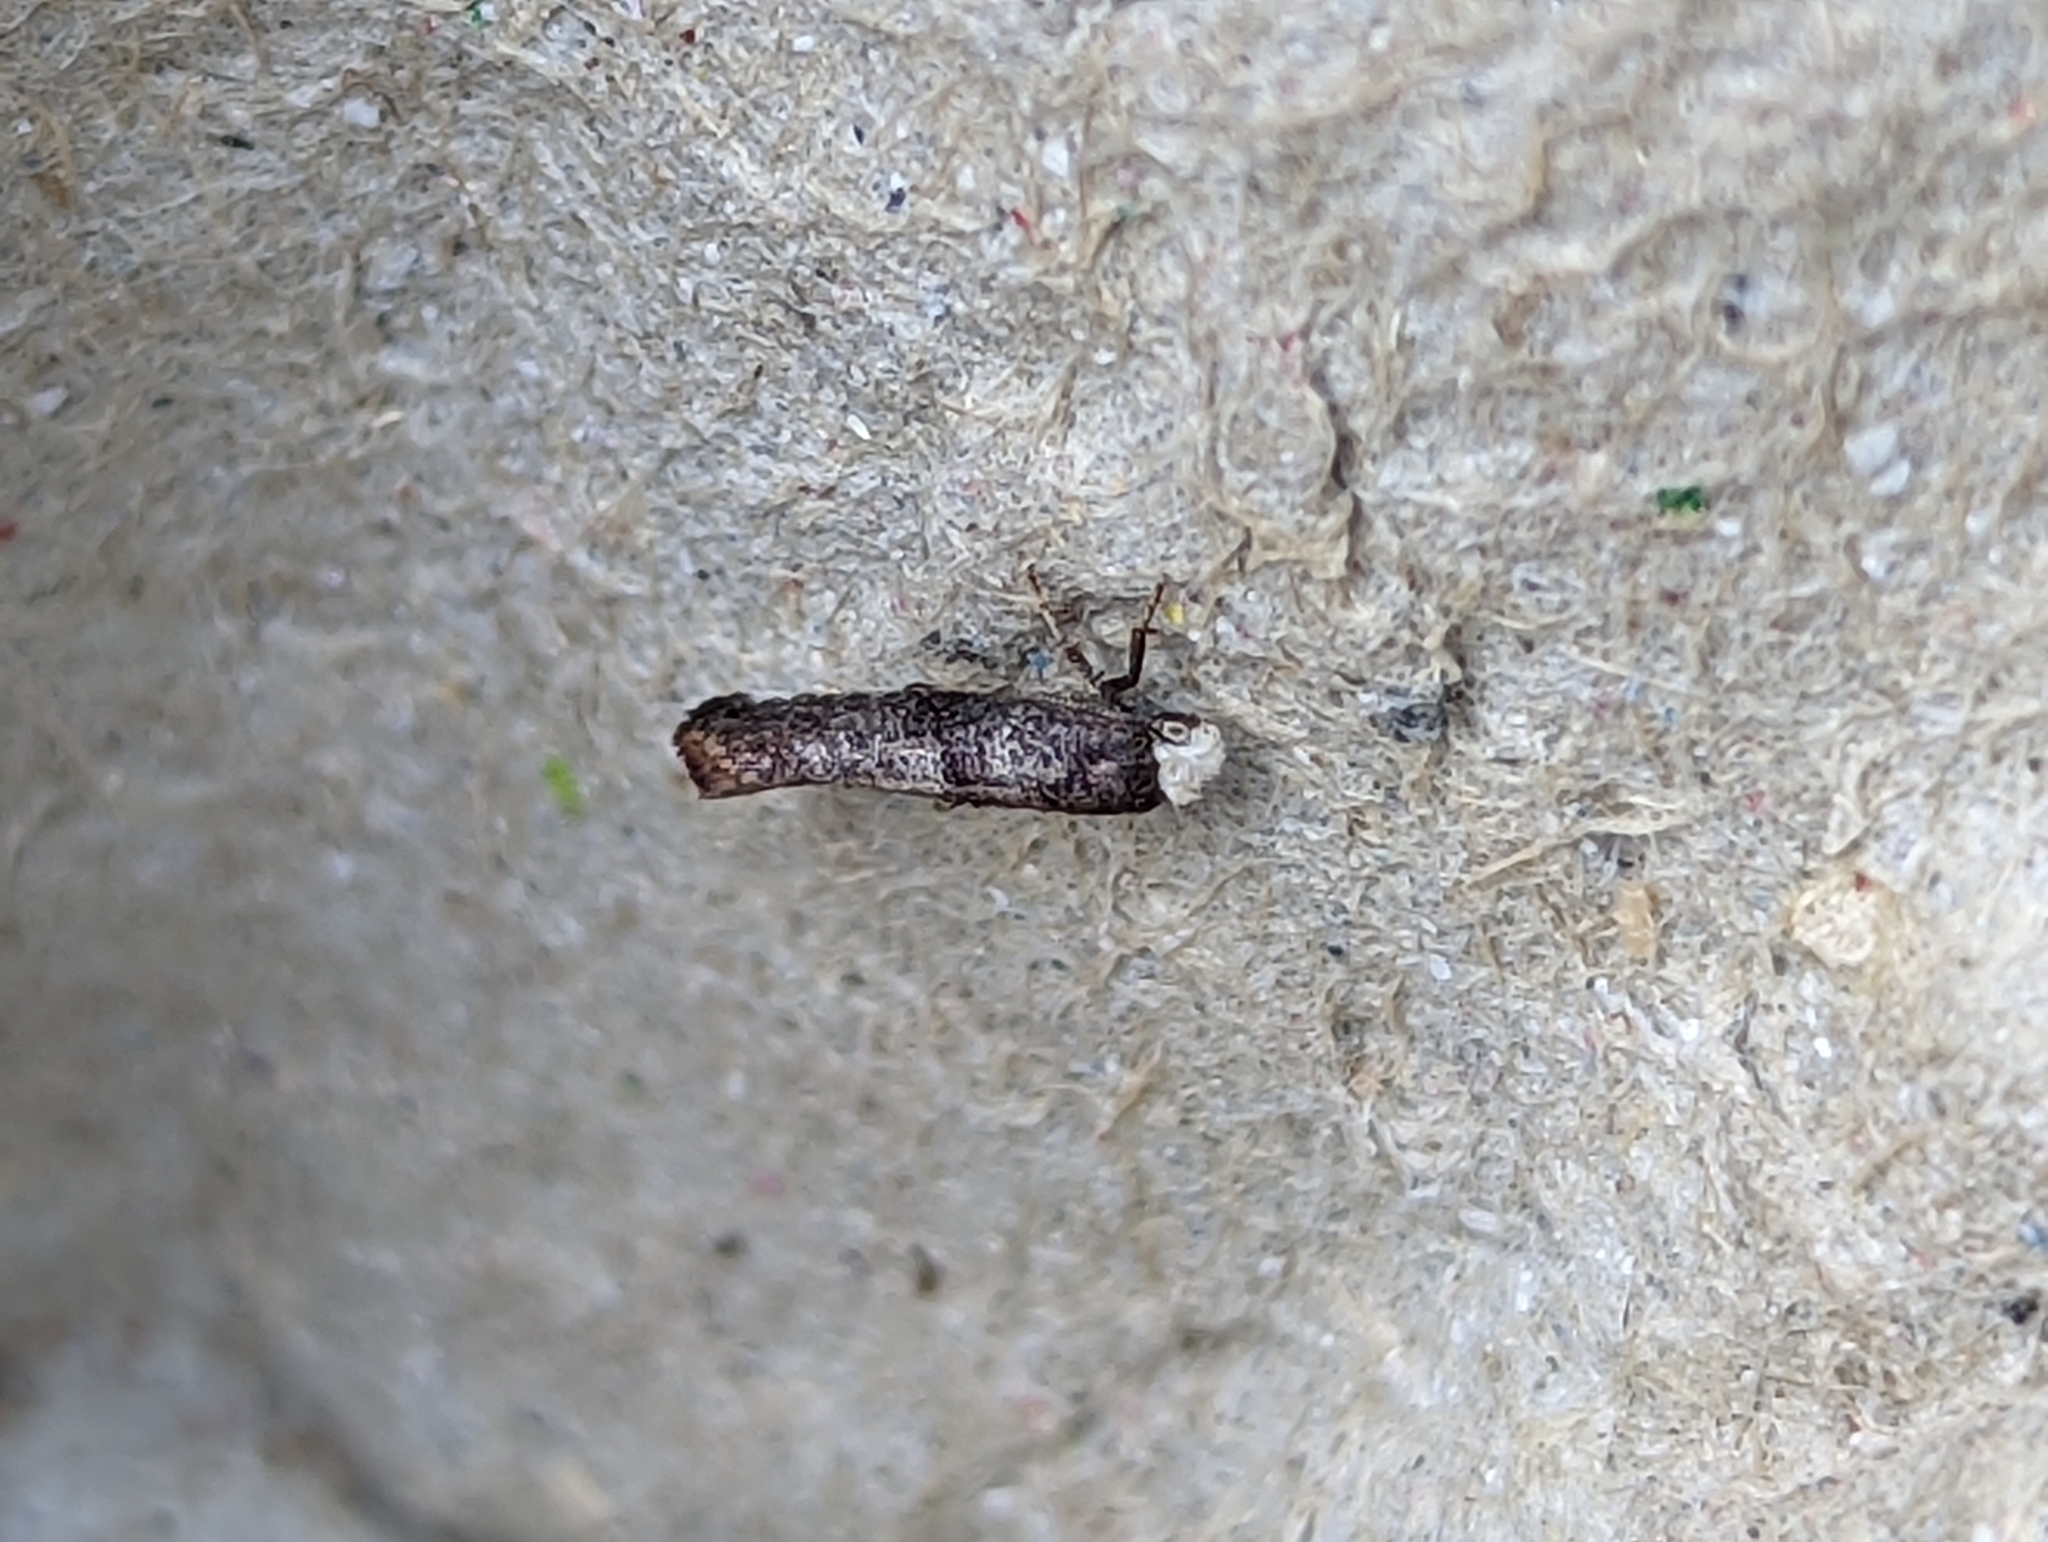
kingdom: Animalia
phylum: Arthropoda
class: Insecta
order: Lepidoptera
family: Yponomeutidae
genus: Swammerdamia
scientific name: Swammerdamia pyrella
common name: Little ermine moth
